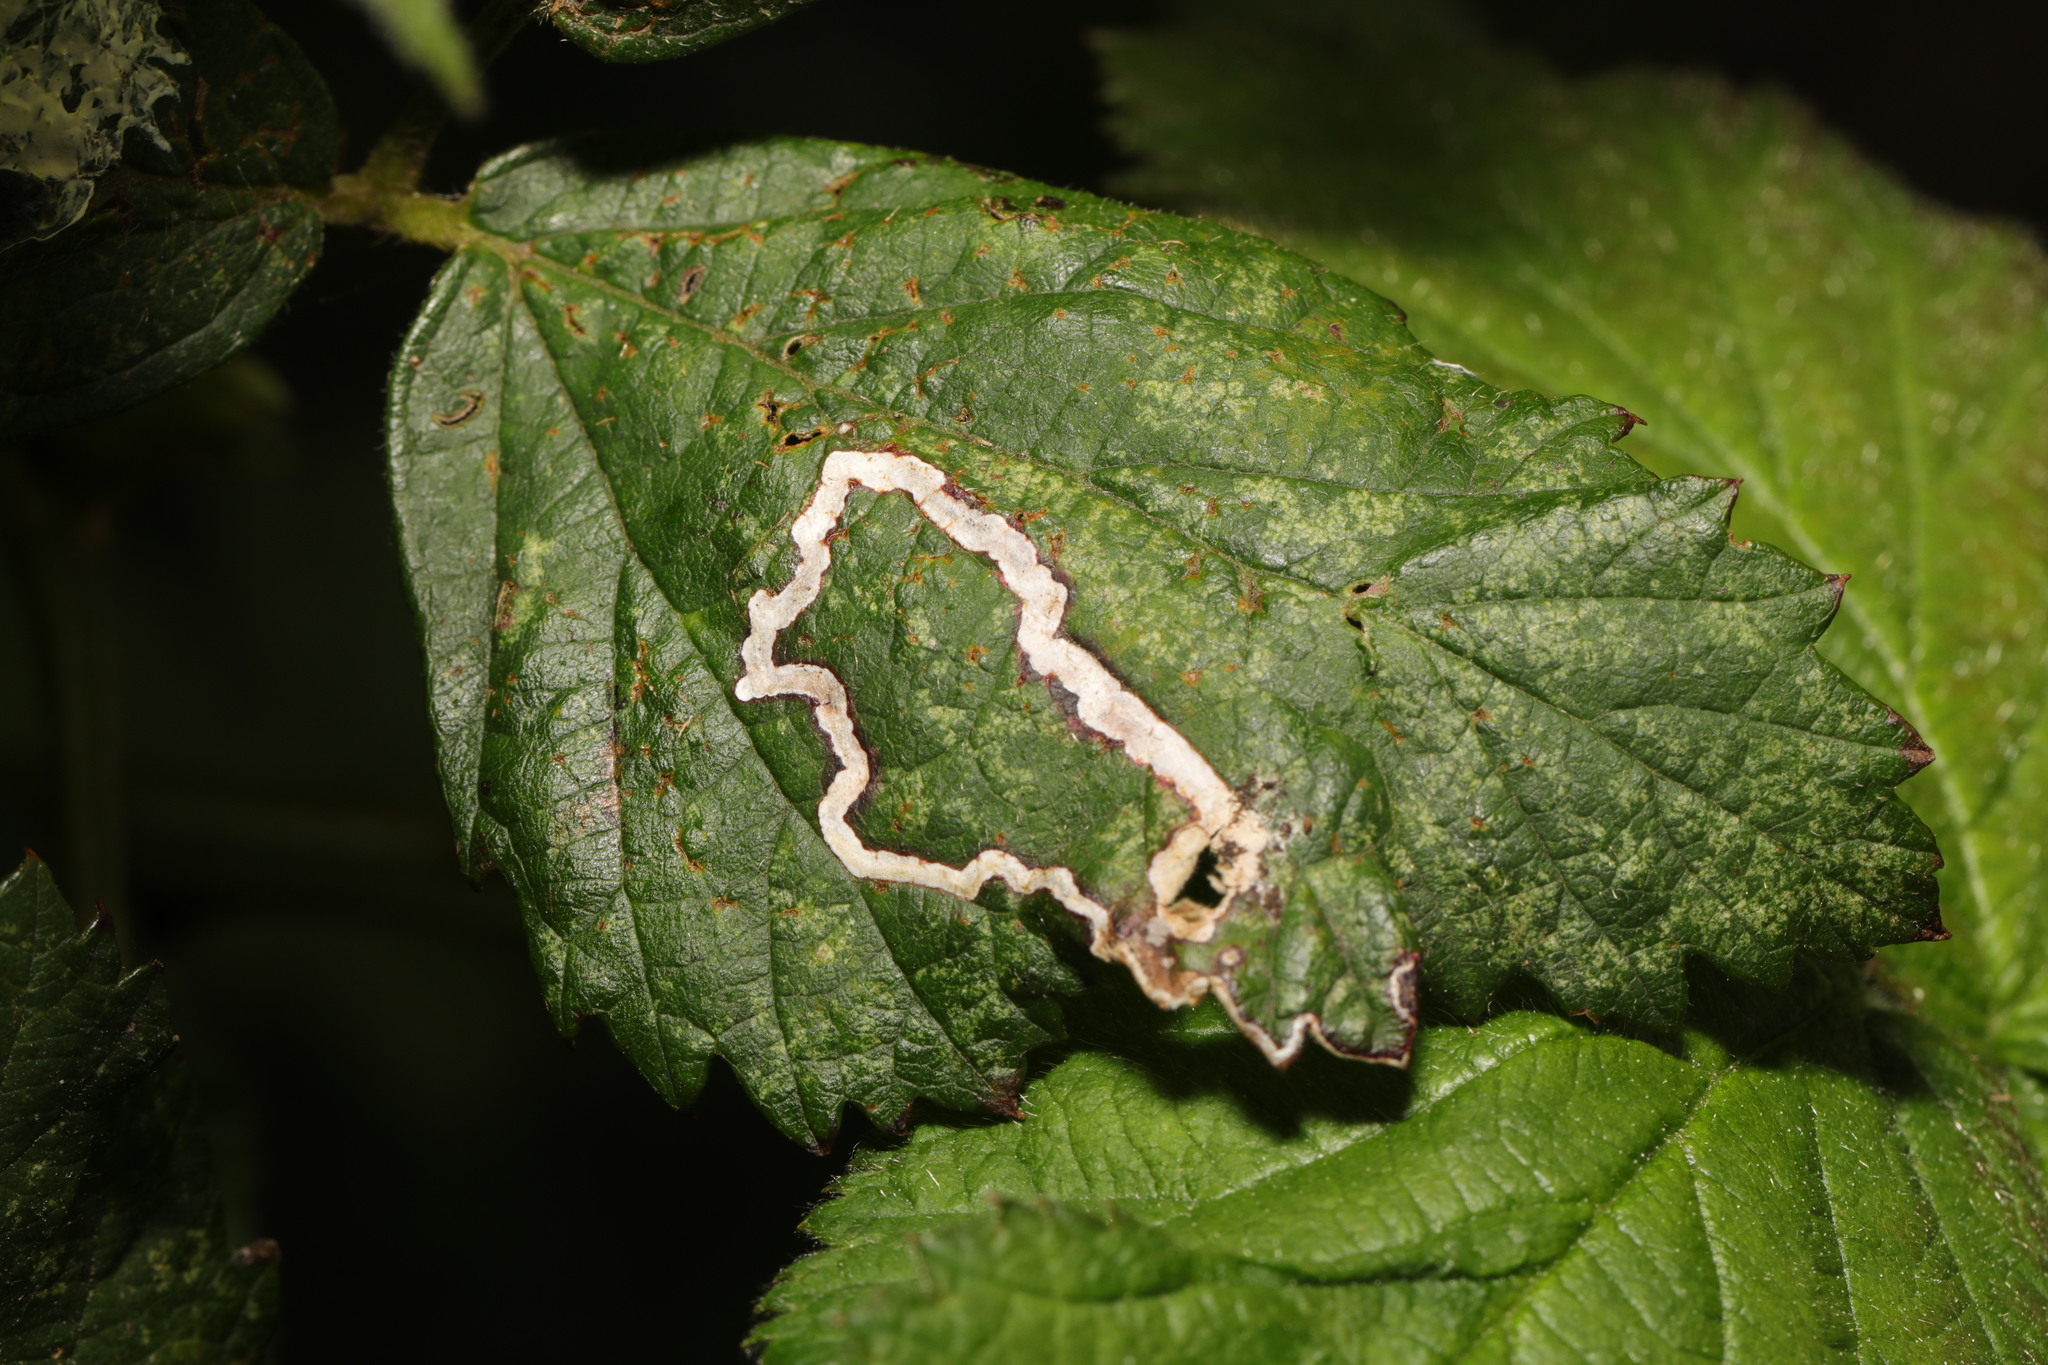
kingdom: Animalia
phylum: Arthropoda
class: Insecta
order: Lepidoptera
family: Nepticulidae
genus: Stigmella
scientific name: Stigmella aurella
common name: Golden pigmy
